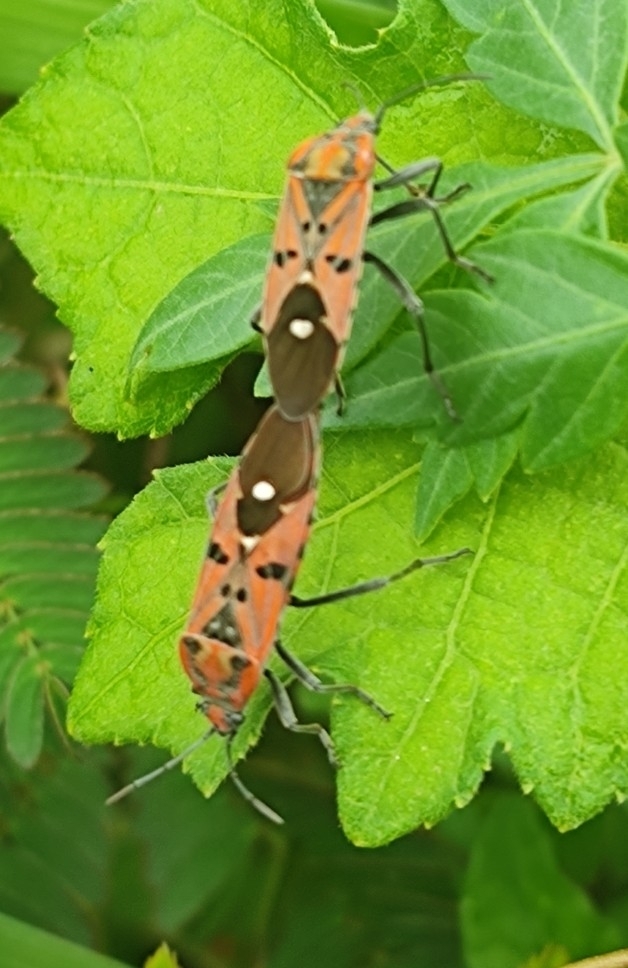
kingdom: Animalia
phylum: Arthropoda
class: Insecta
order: Hemiptera
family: Lygaeidae
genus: Spilostethus
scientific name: Spilostethus pandurus
